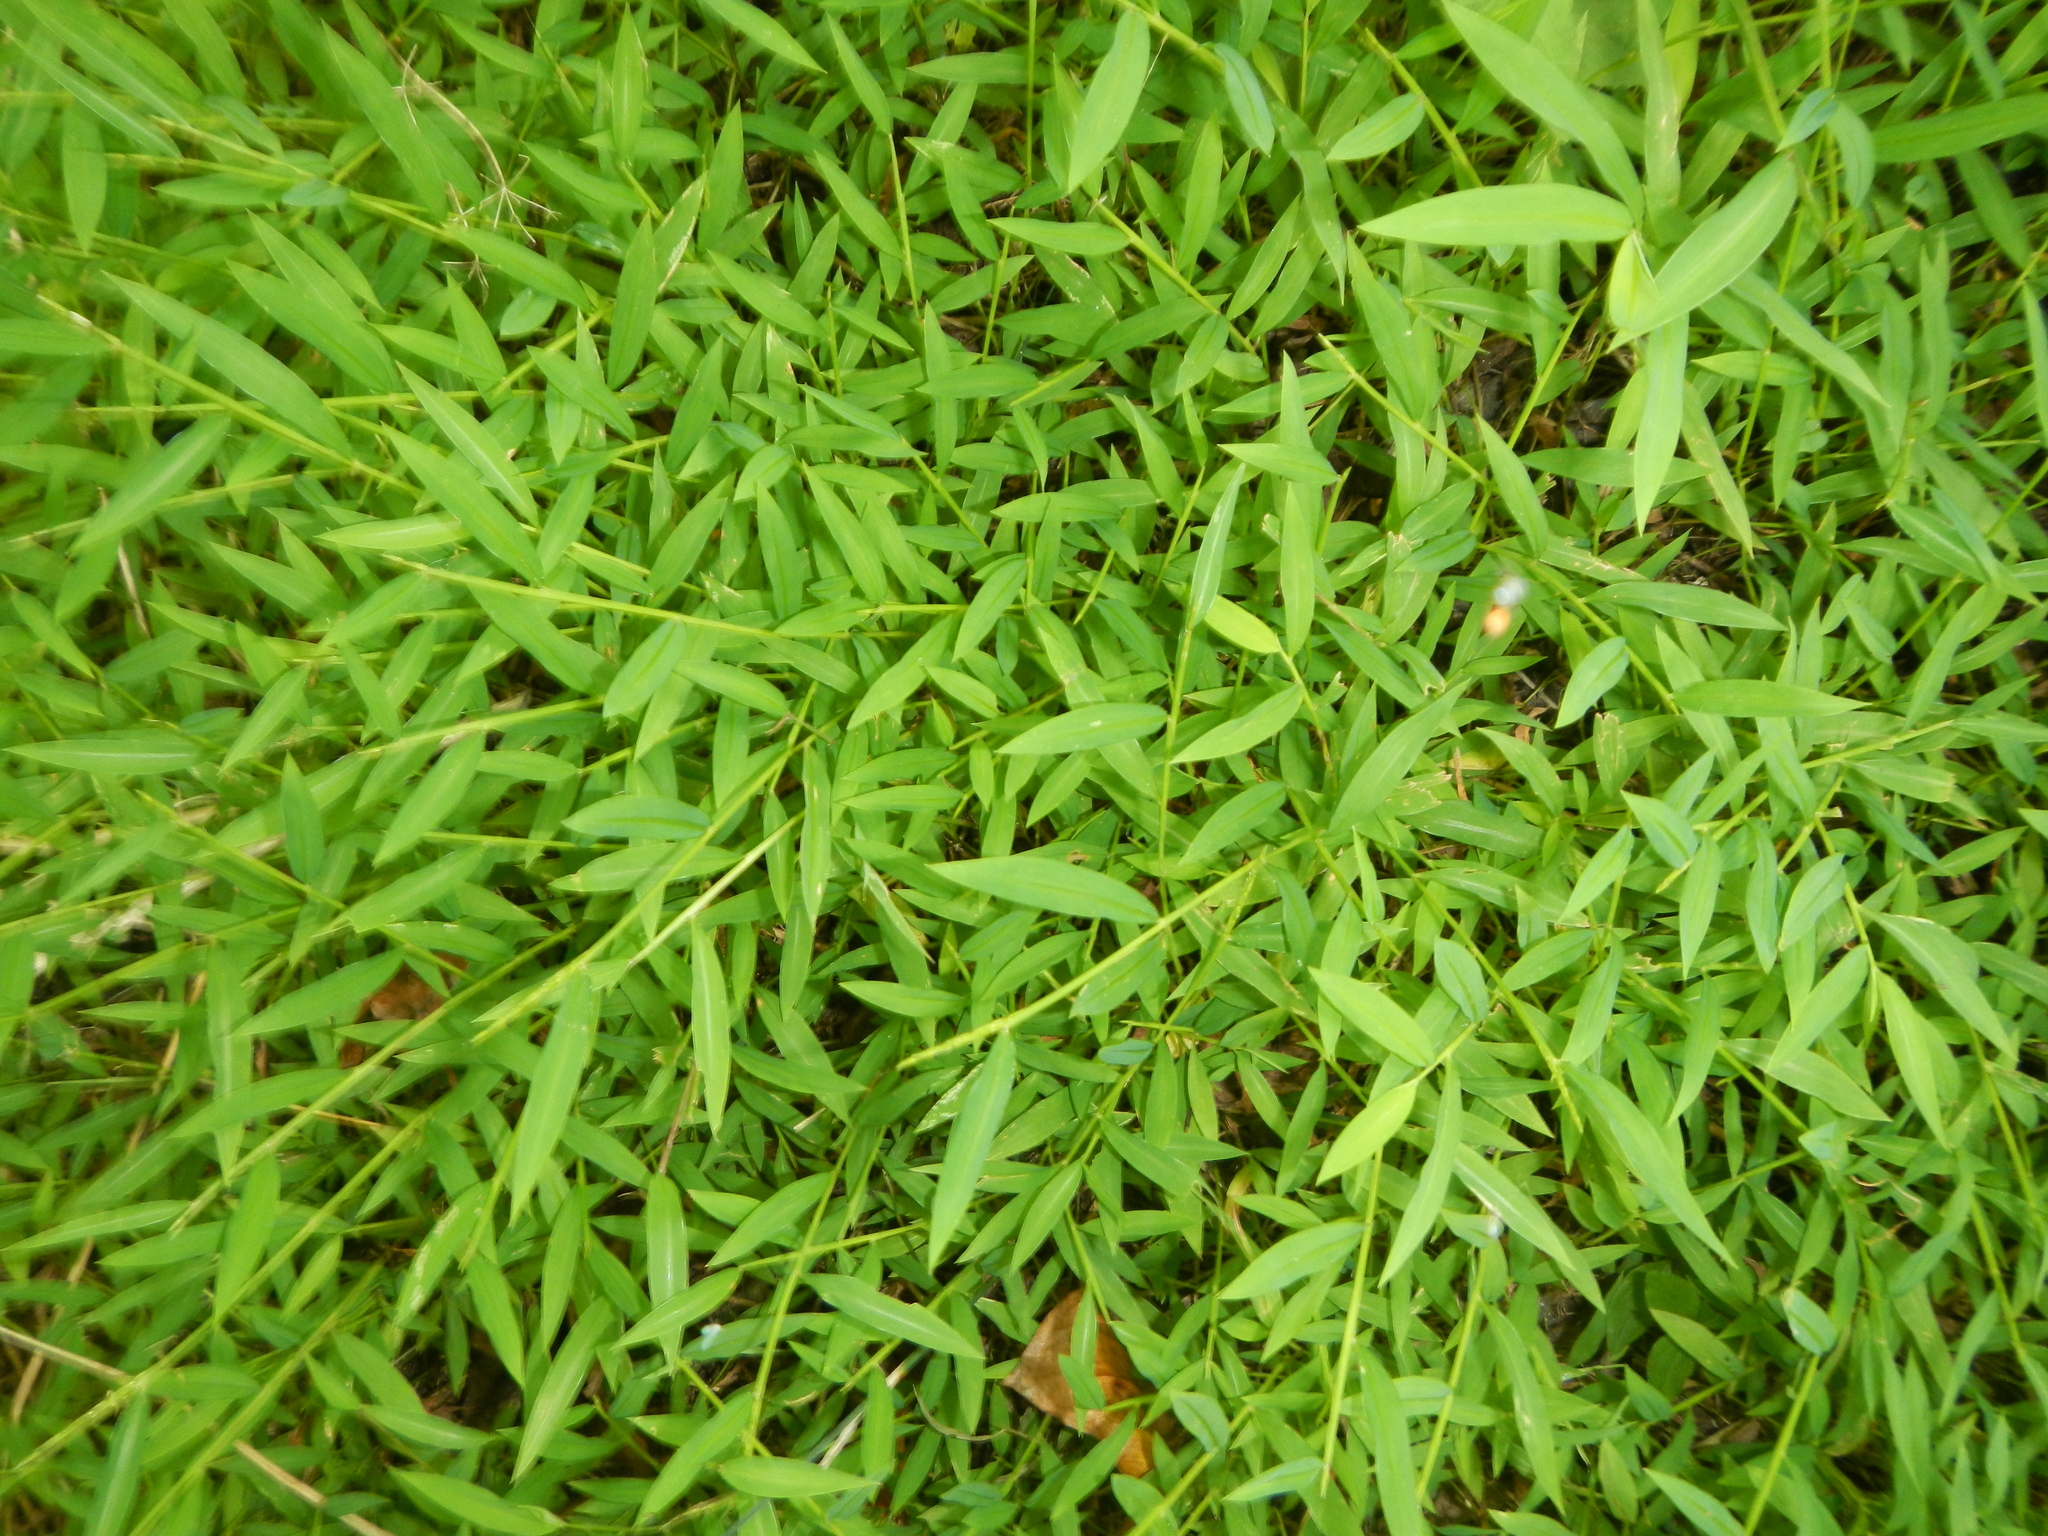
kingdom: Plantae
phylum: Tracheophyta
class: Liliopsida
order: Poales
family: Poaceae
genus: Microstegium
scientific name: Microstegium vimineum
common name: Japanese stiltgrass
